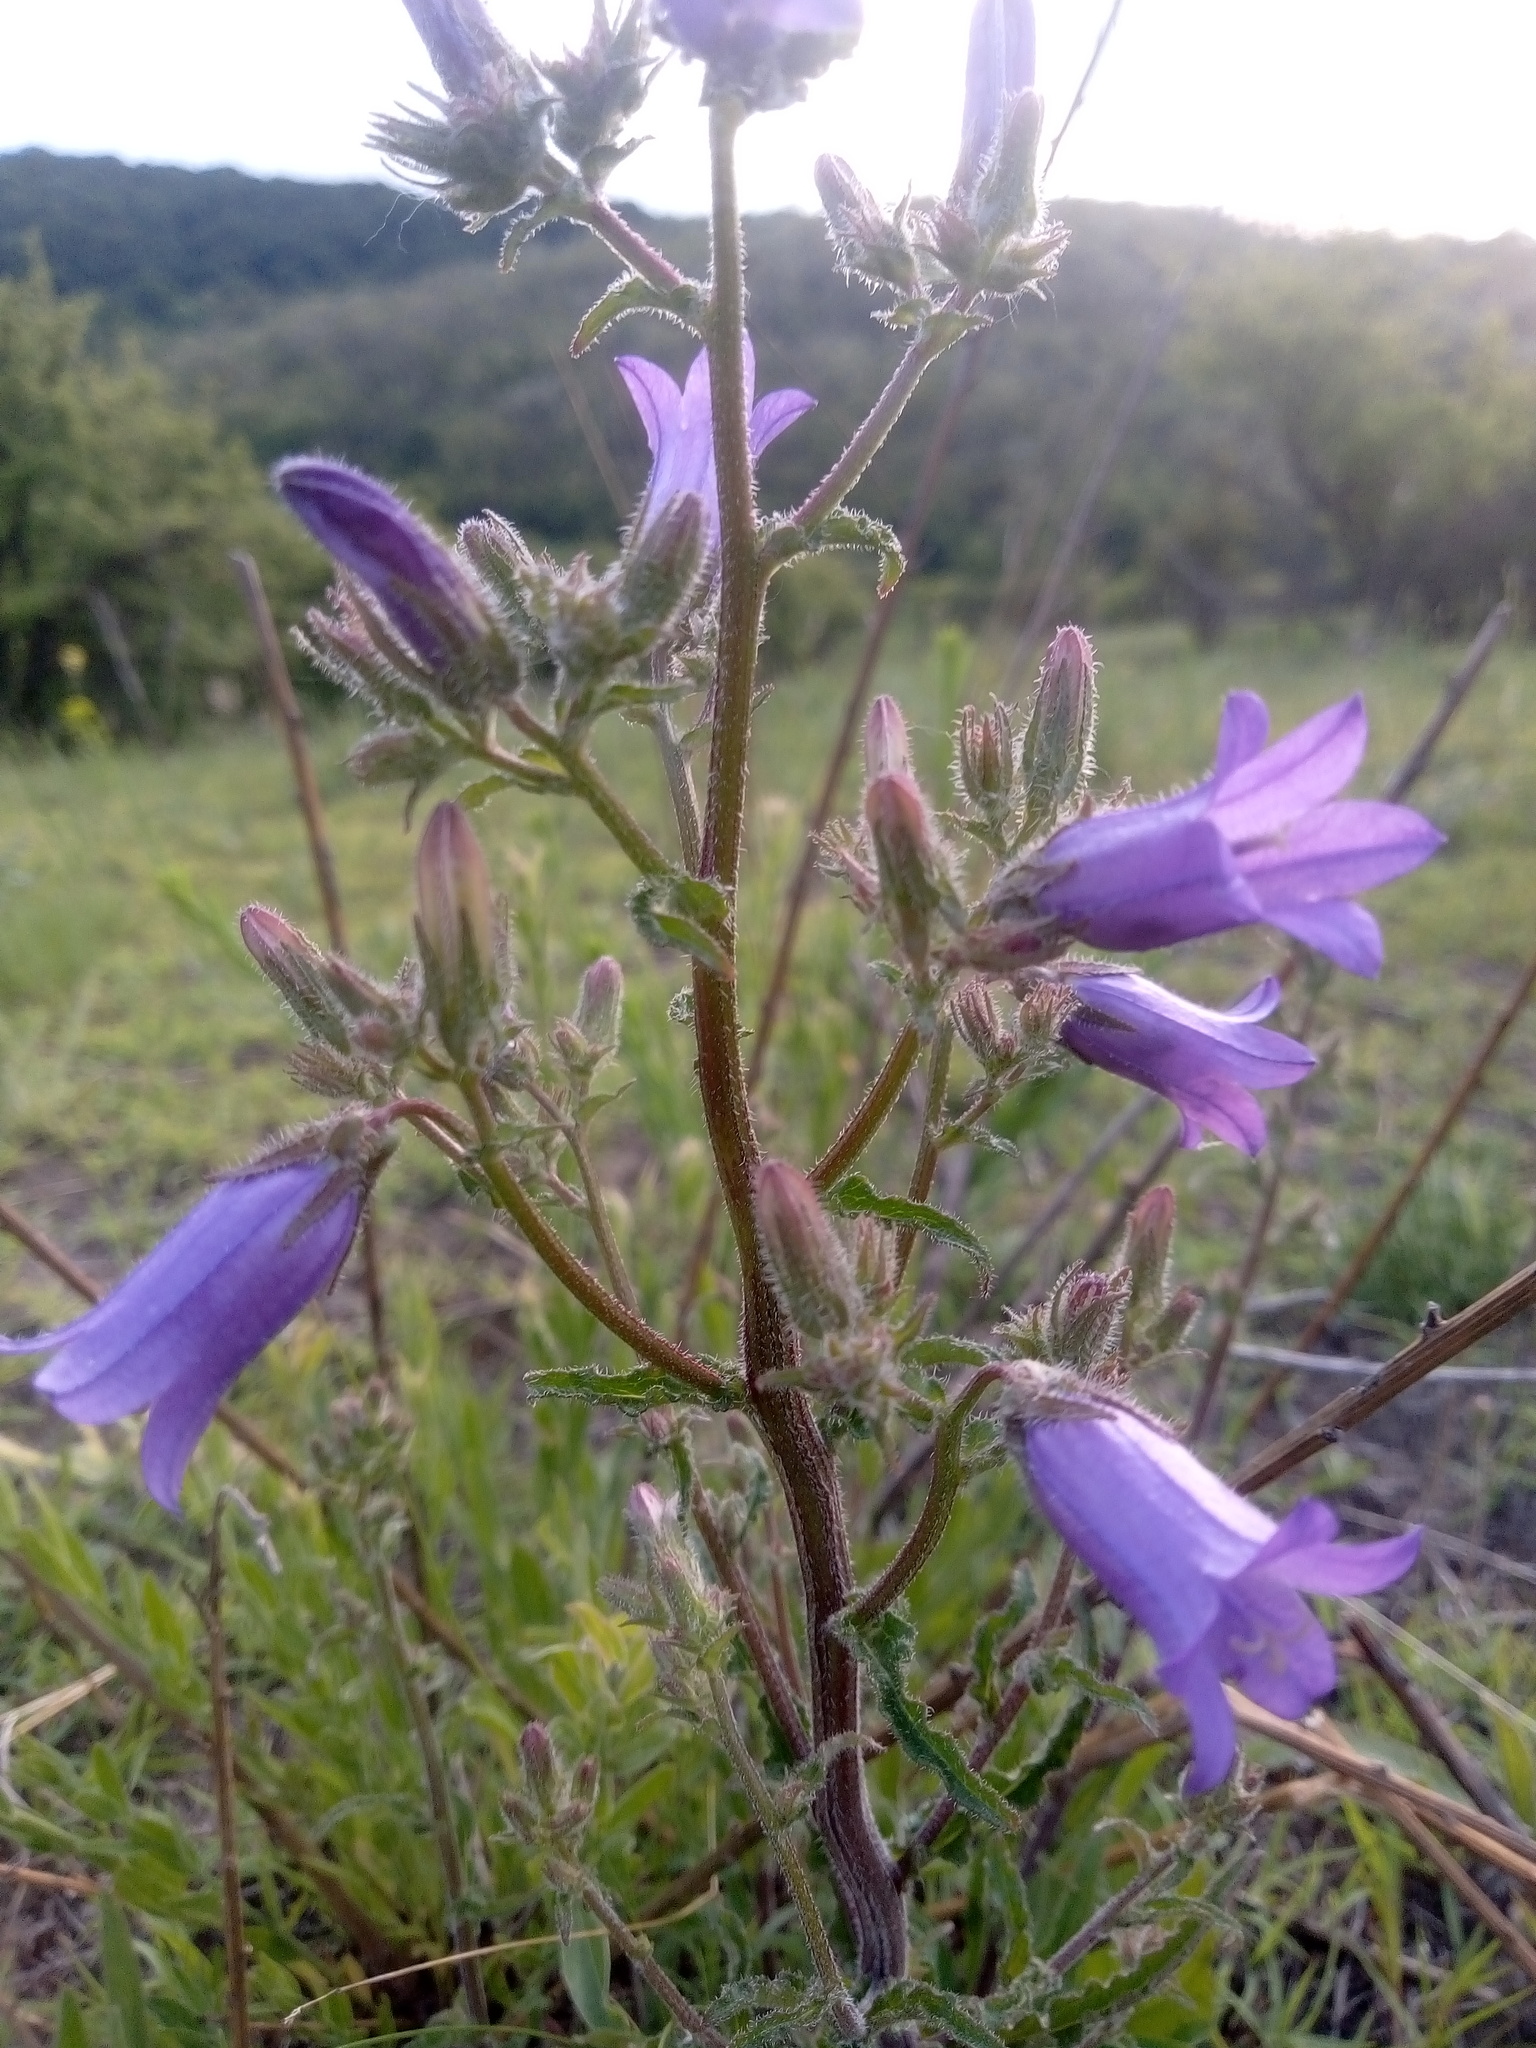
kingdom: Plantae
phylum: Tracheophyta
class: Magnoliopsida
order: Asterales
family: Campanulaceae
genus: Campanula
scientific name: Campanula sibirica
